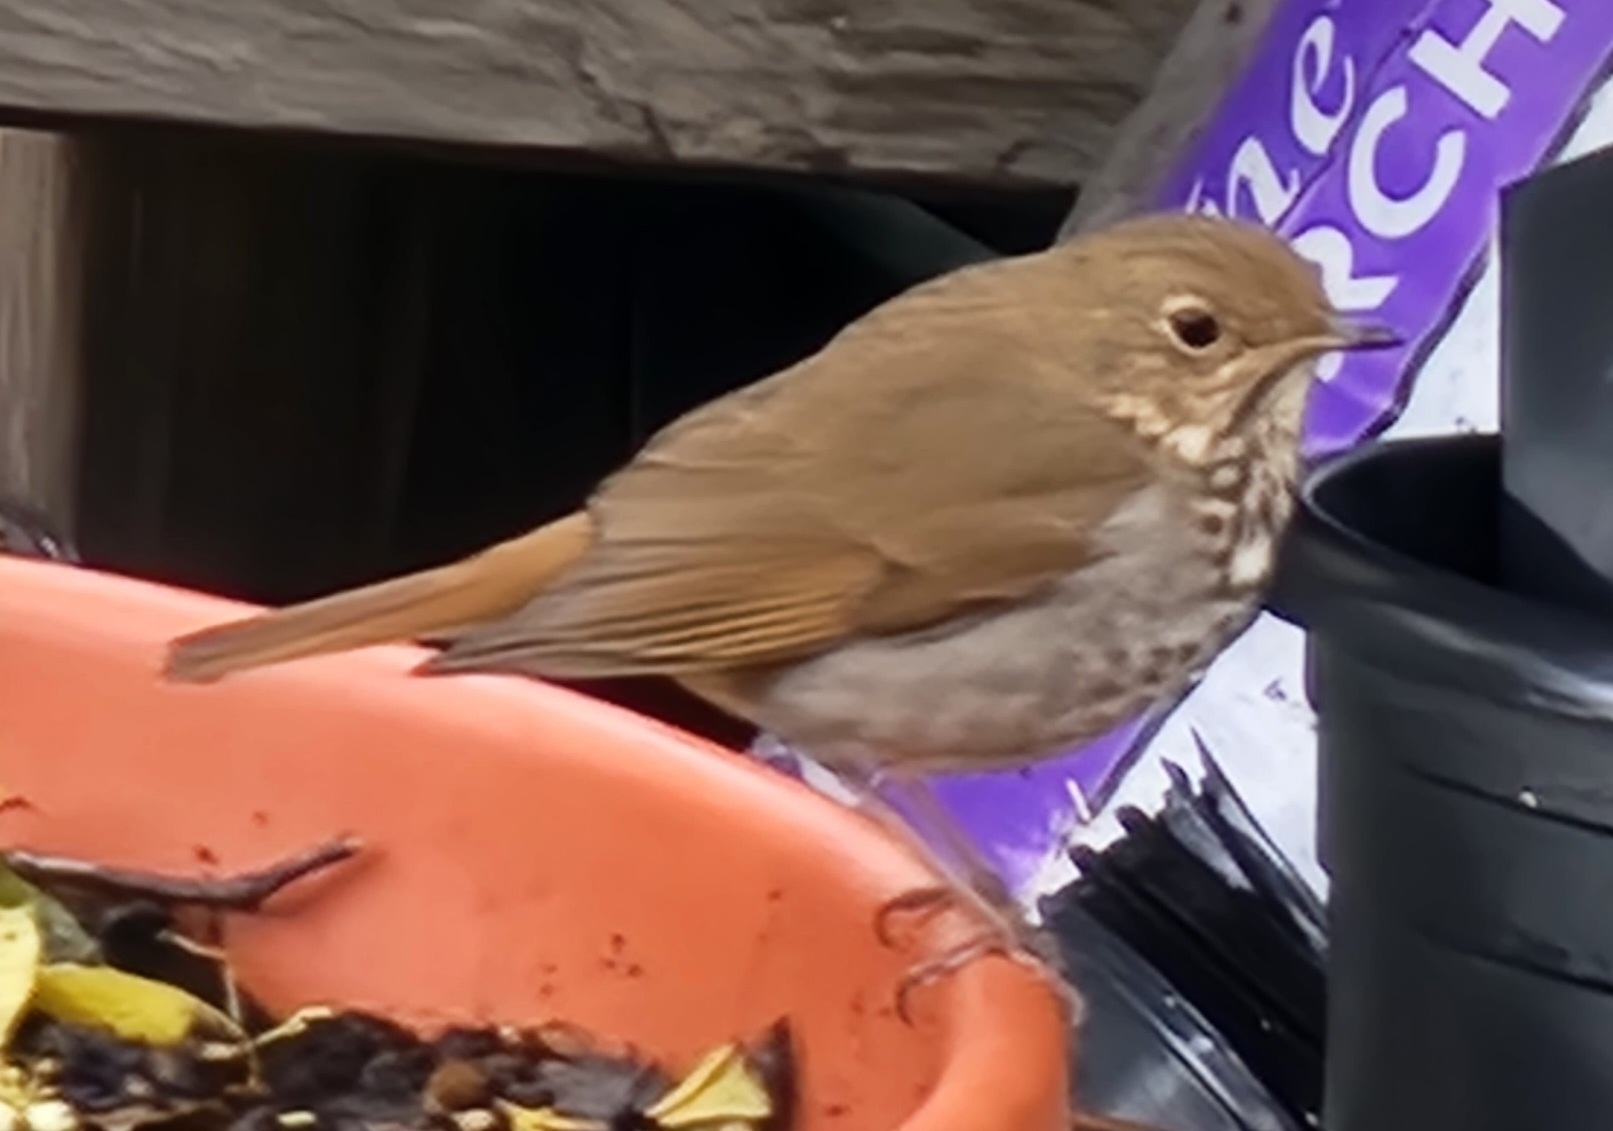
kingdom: Animalia
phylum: Chordata
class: Aves
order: Passeriformes
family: Turdidae
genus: Catharus
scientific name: Catharus guttatus
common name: Hermit thrush
